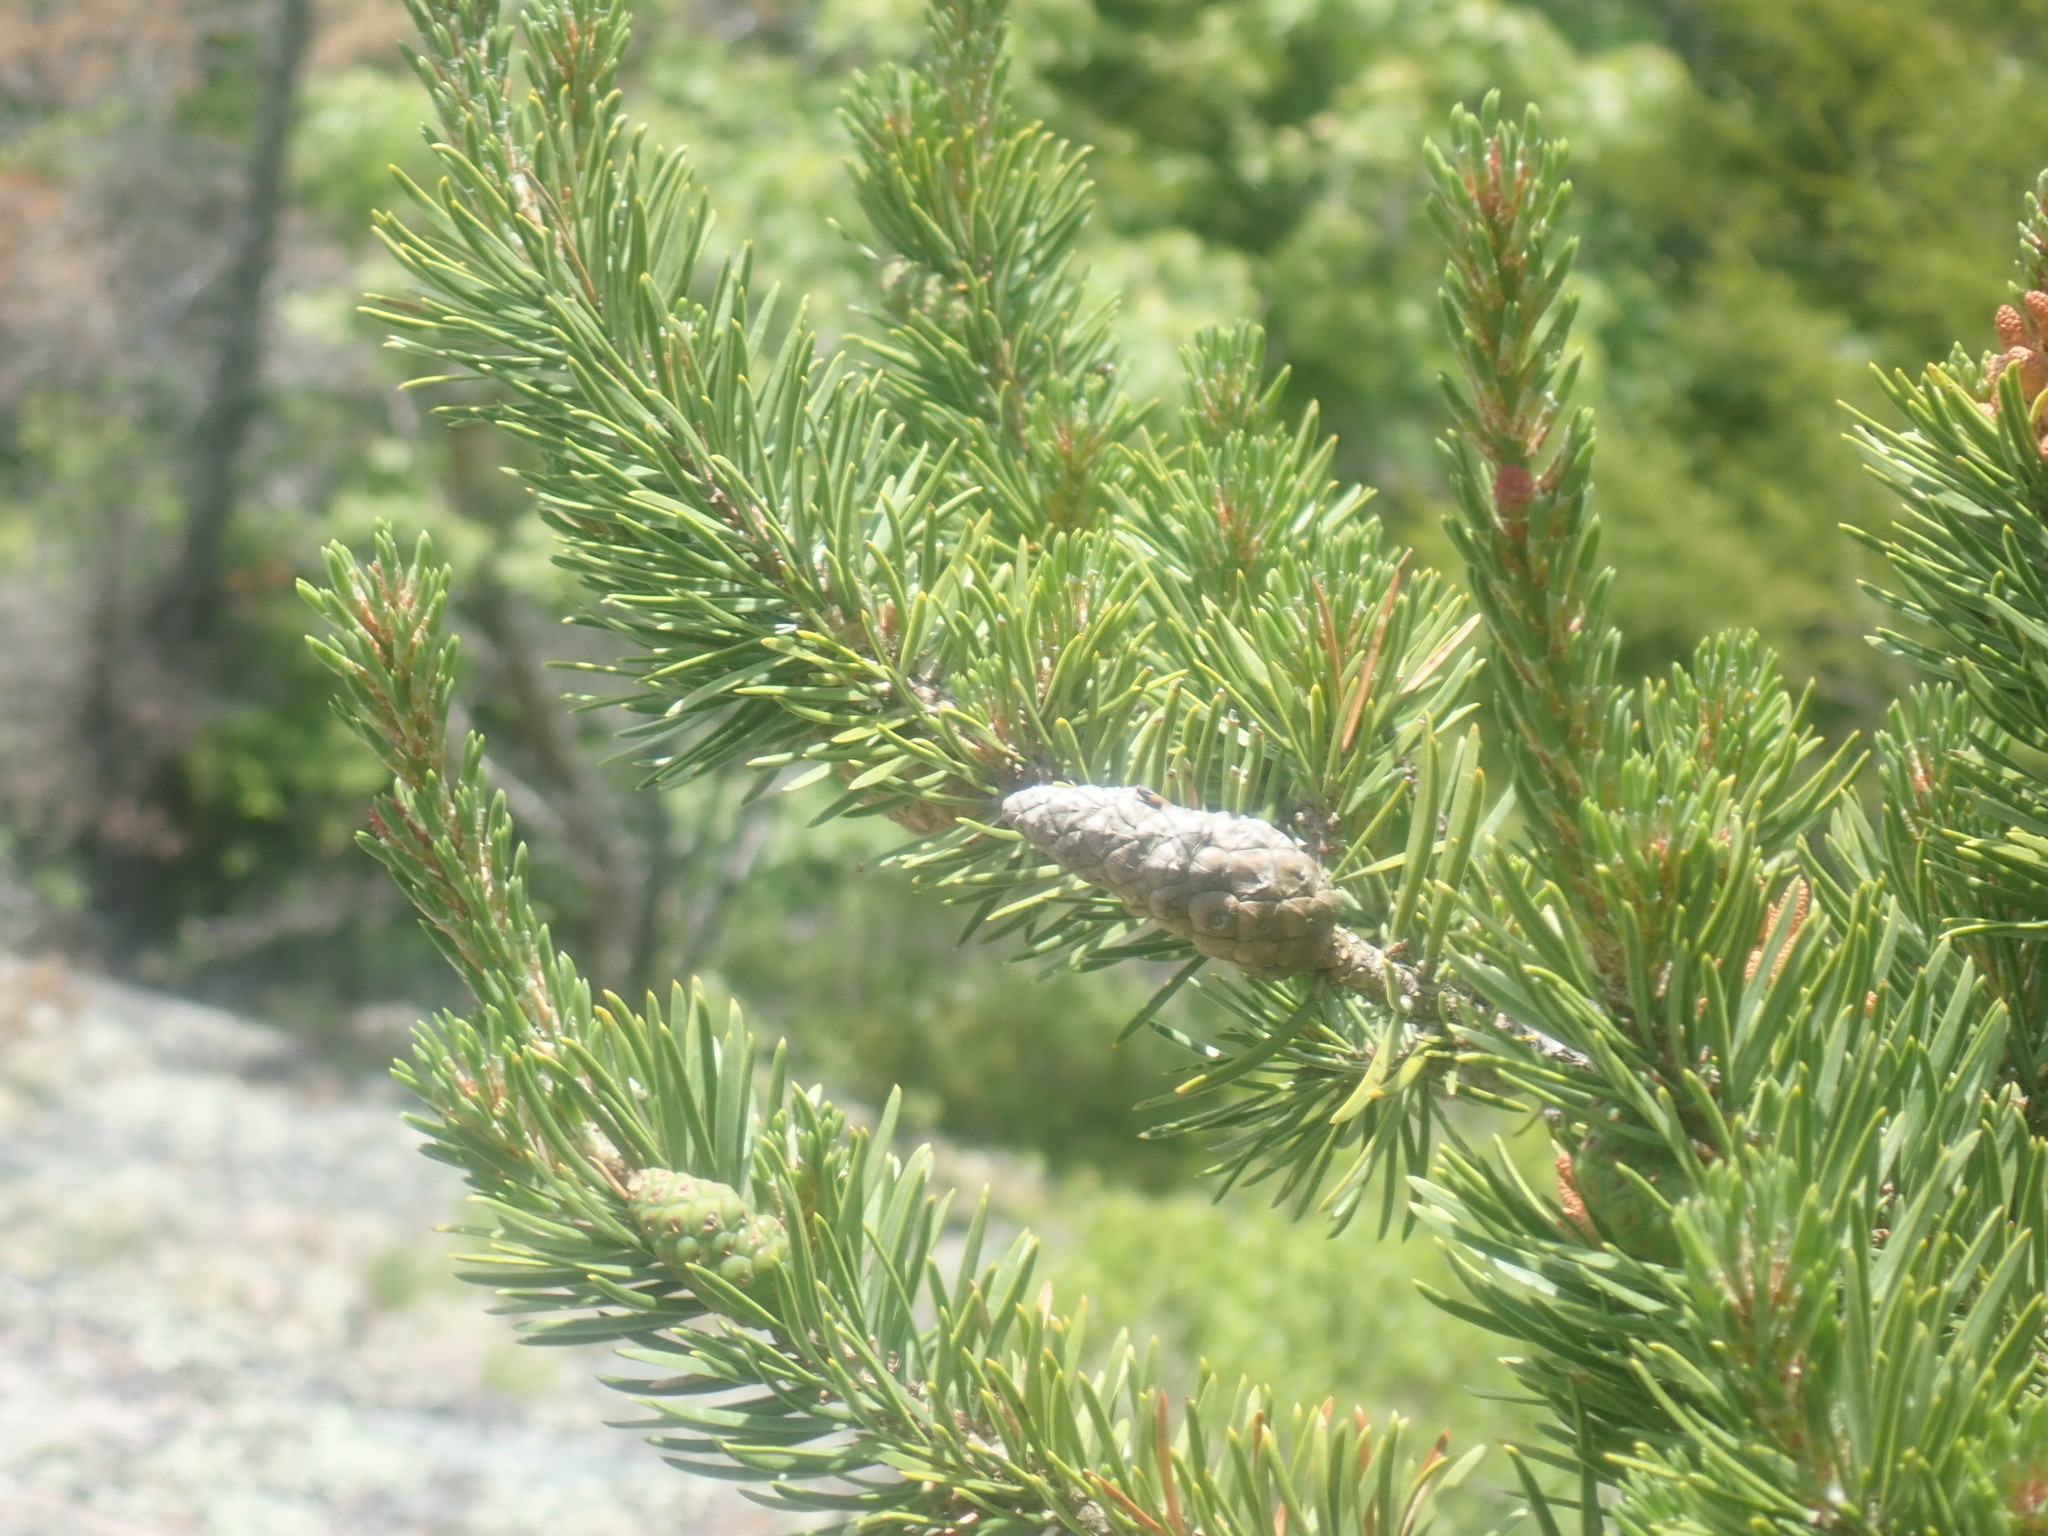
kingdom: Plantae
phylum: Tracheophyta
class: Pinopsida
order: Pinales
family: Pinaceae
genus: Pinus
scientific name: Pinus banksiana
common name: Jack pine
